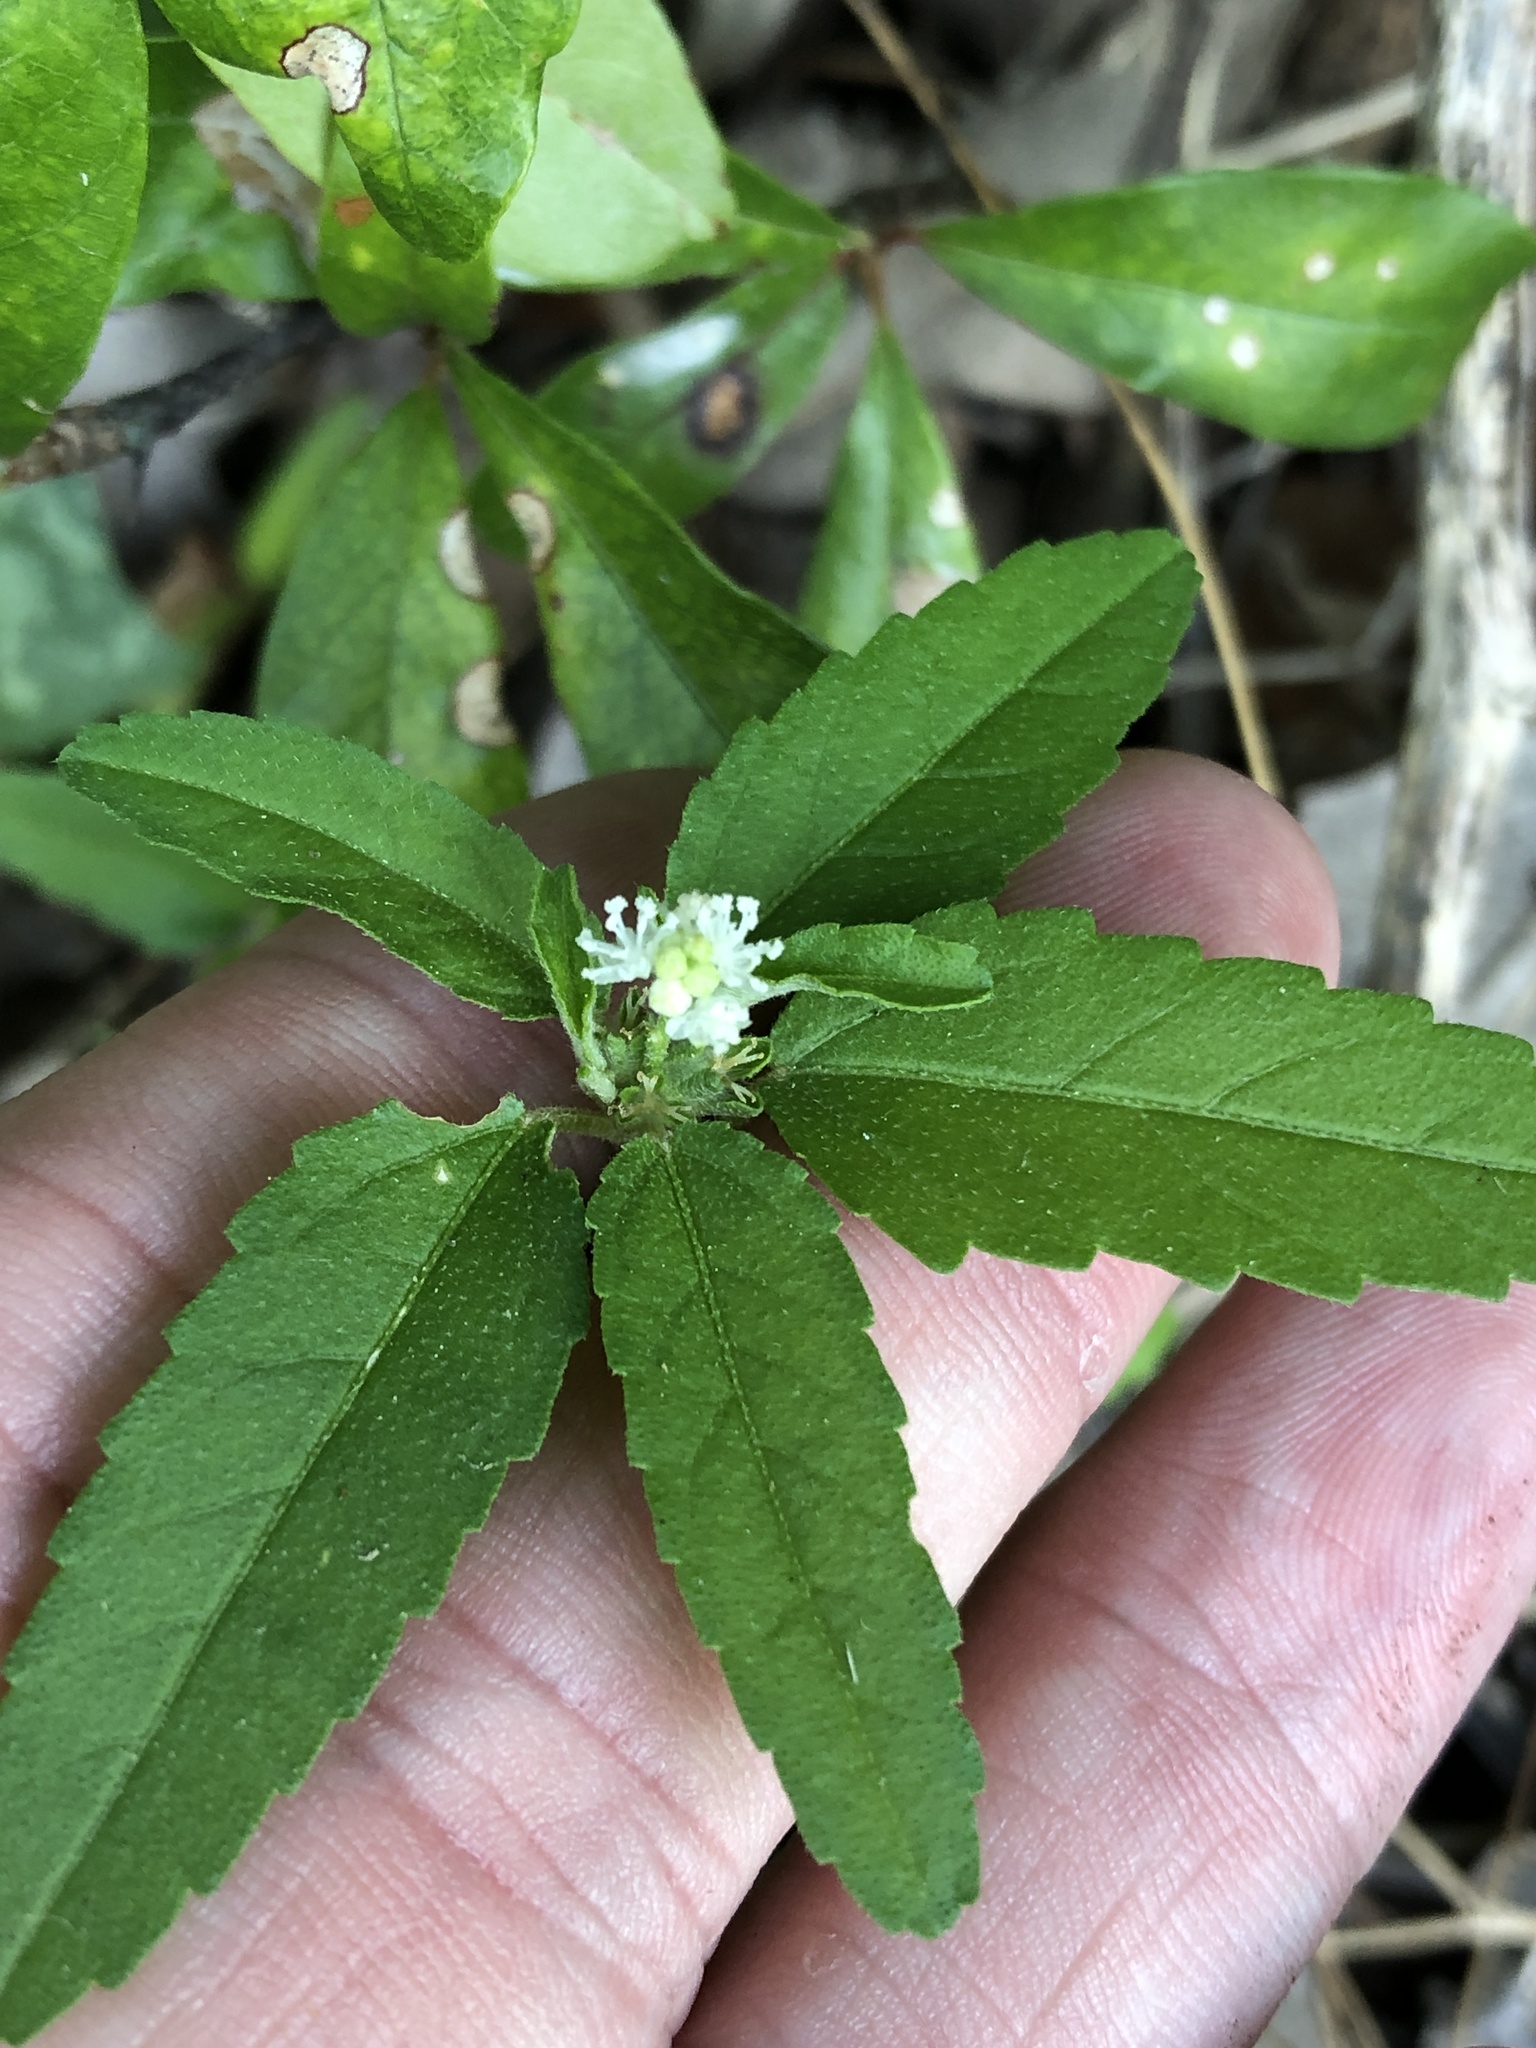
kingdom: Plantae
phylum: Tracheophyta
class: Magnoliopsida
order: Malpighiales
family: Euphorbiaceae
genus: Croton
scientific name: Croton glandulosus
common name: Tropic croton
